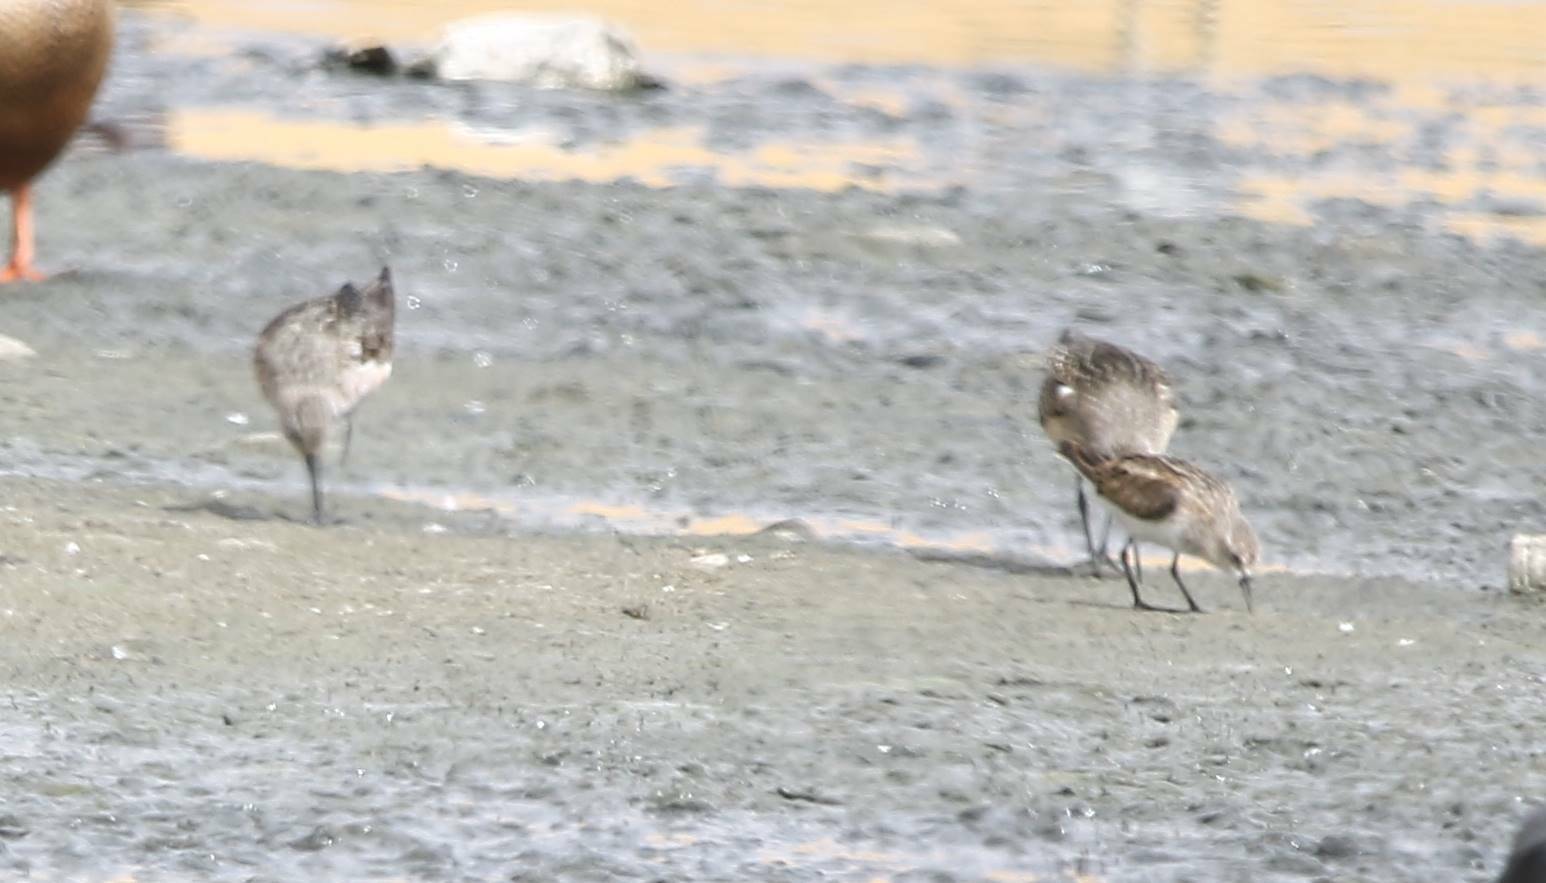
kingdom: Animalia
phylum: Chordata
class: Aves
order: Charadriiformes
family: Scolopacidae
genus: Calidris
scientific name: Calidris ferruginea
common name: Curlew sandpiper
